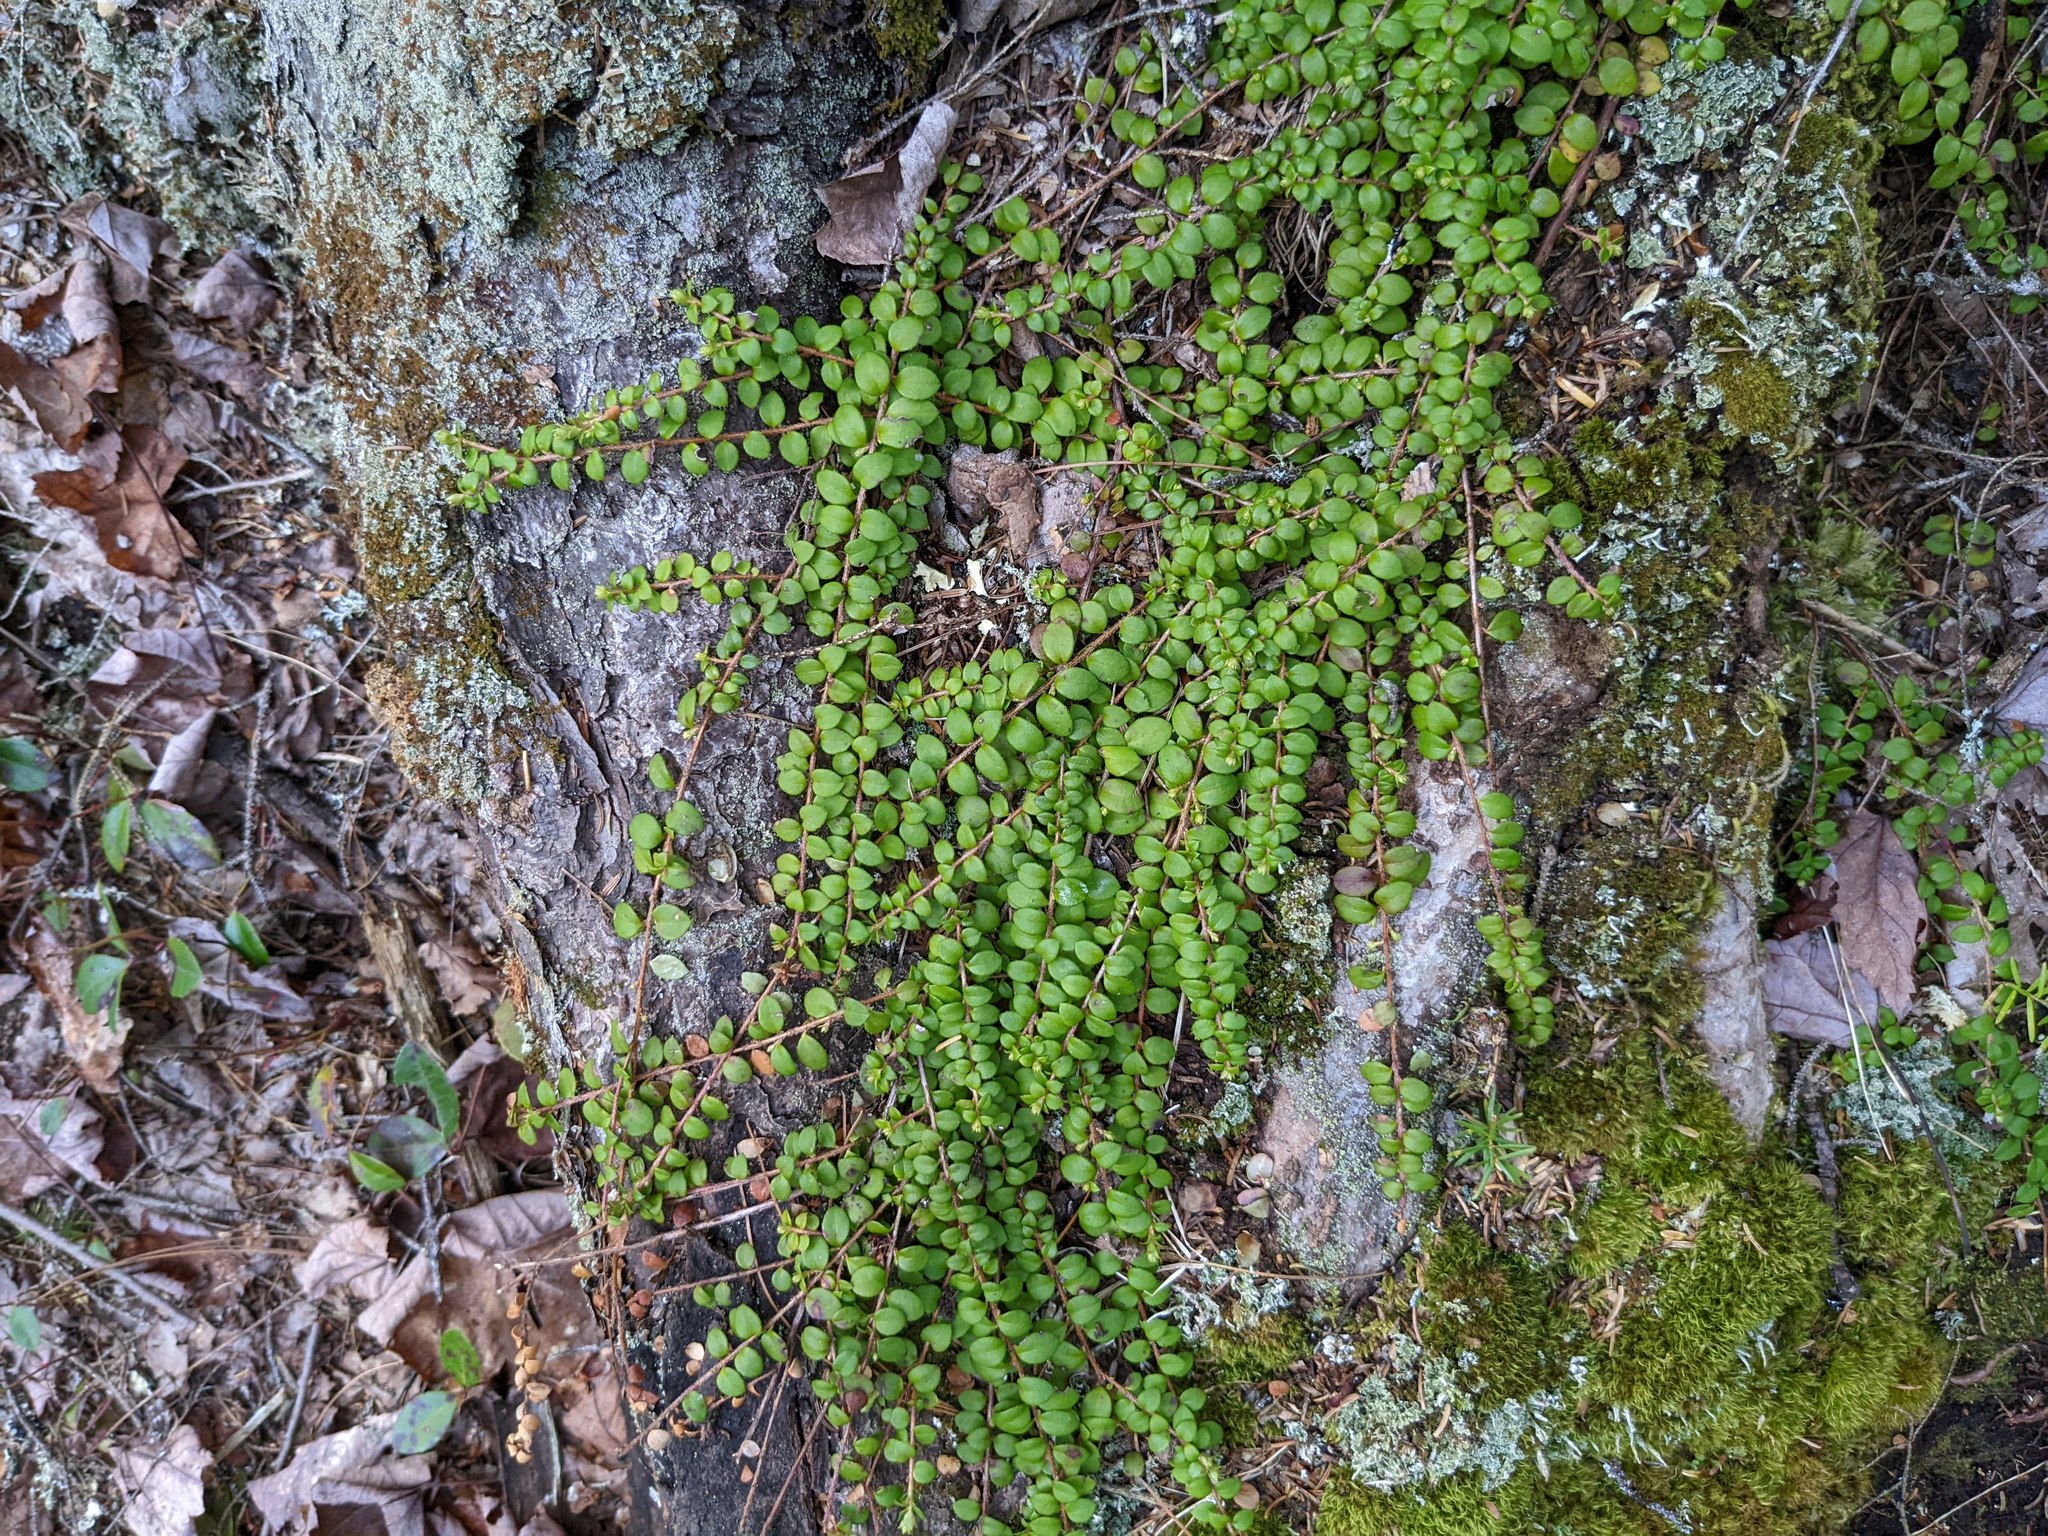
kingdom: Plantae
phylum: Tracheophyta
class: Magnoliopsida
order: Ericales
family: Ericaceae
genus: Gaultheria
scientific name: Gaultheria hispidula
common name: Cancer wintergreen
